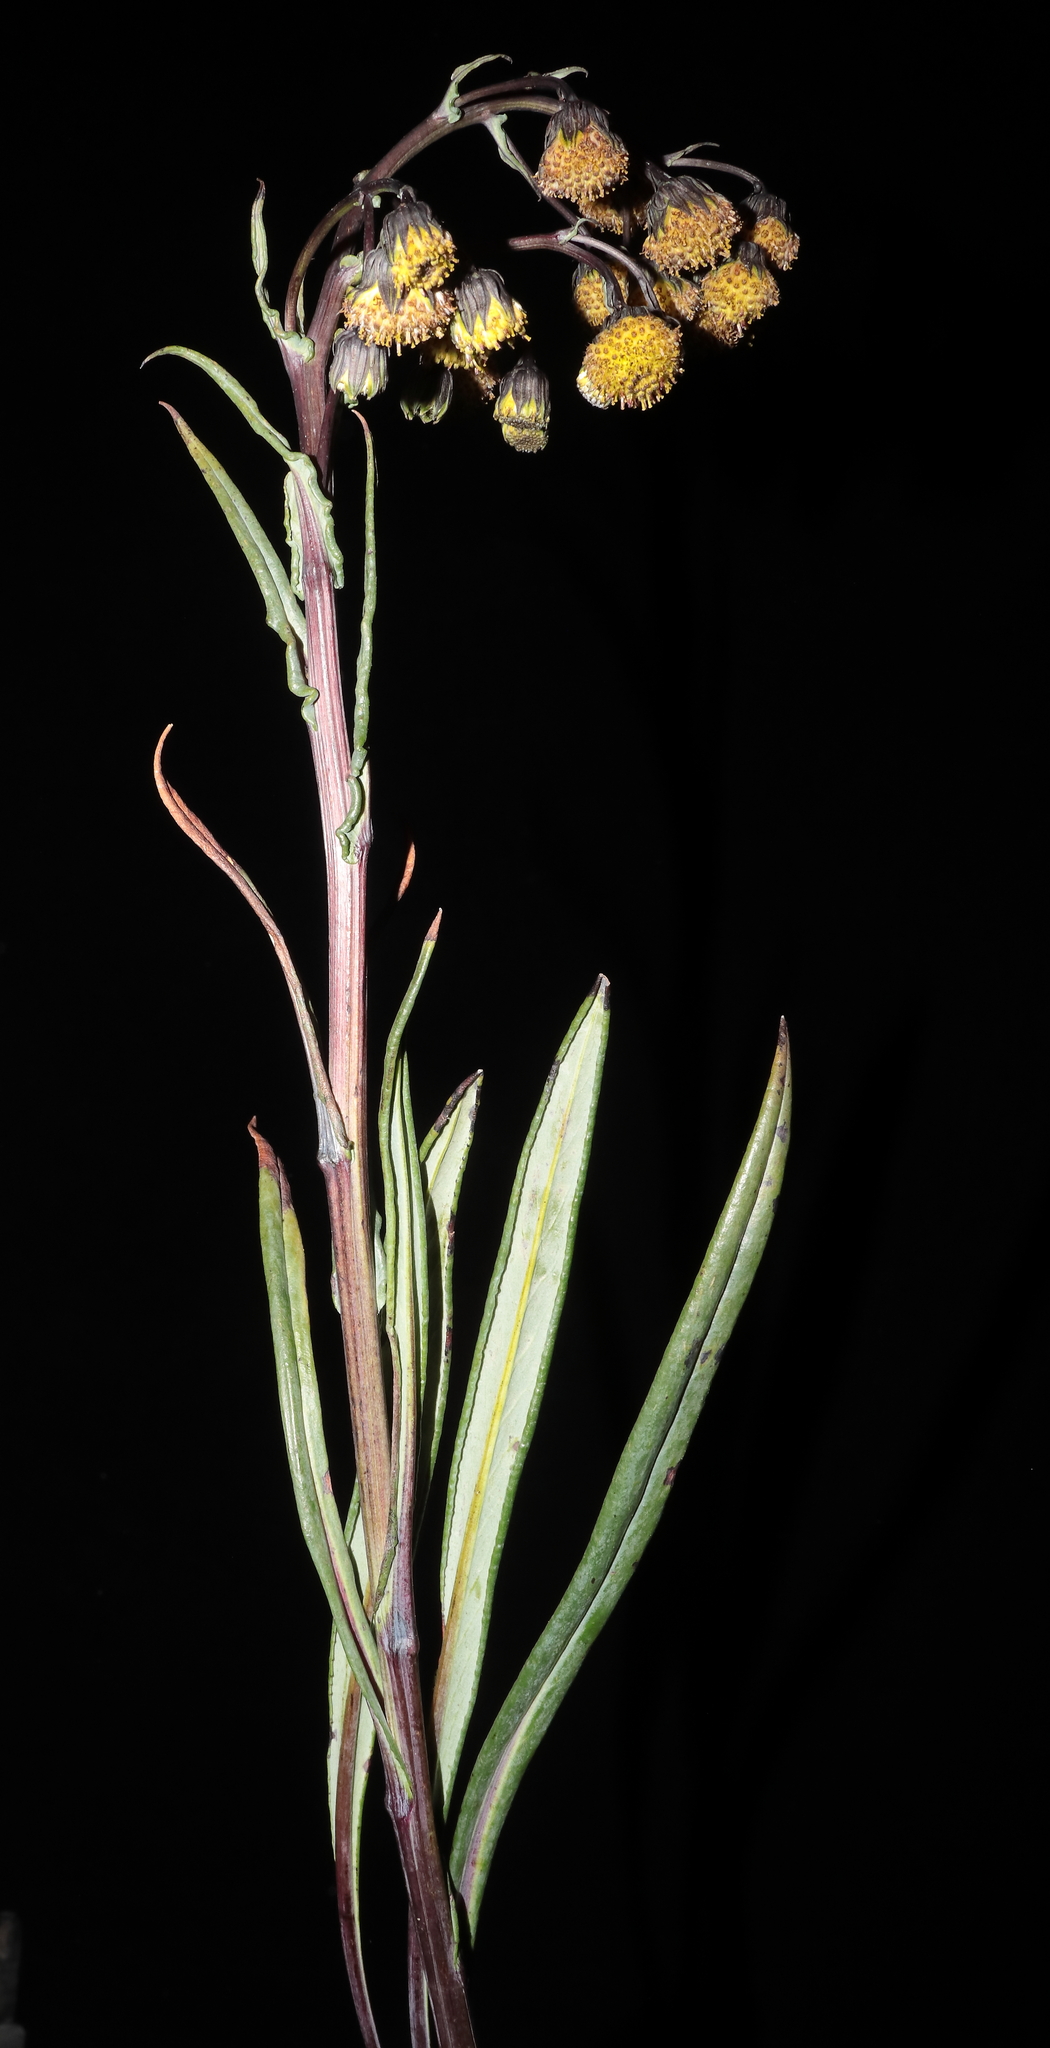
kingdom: Plantae
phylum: Tracheophyta
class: Magnoliopsida
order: Asterales
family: Asteraceae
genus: Senecio
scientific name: Senecio comosus
